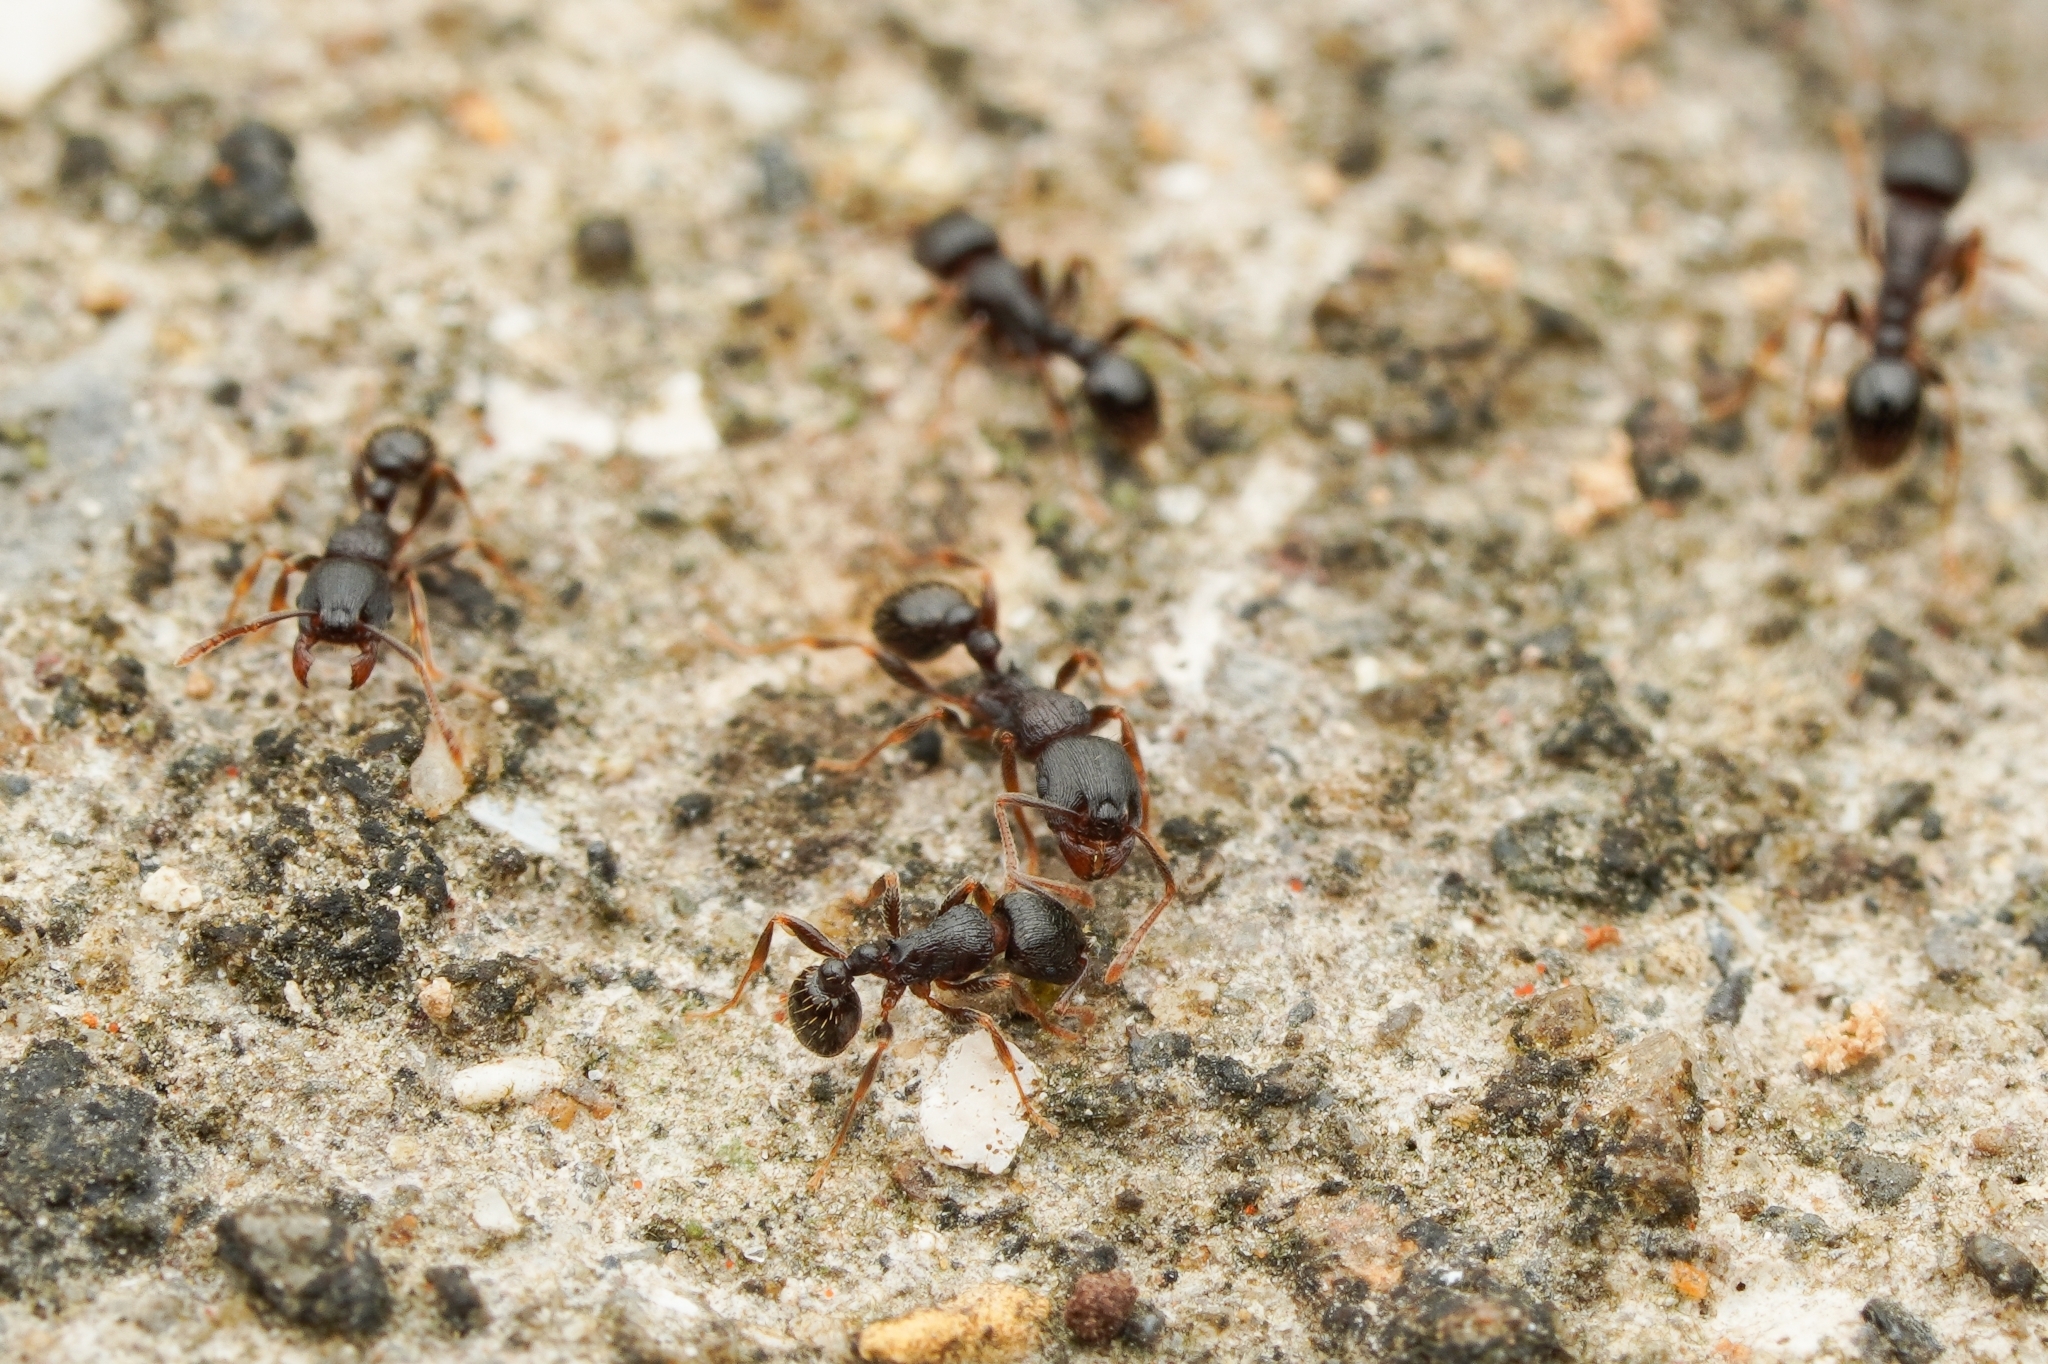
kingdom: Animalia
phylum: Arthropoda
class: Insecta
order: Hymenoptera
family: Formicidae
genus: Tetramorium
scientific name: Tetramorium tsushimae
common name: Ant
